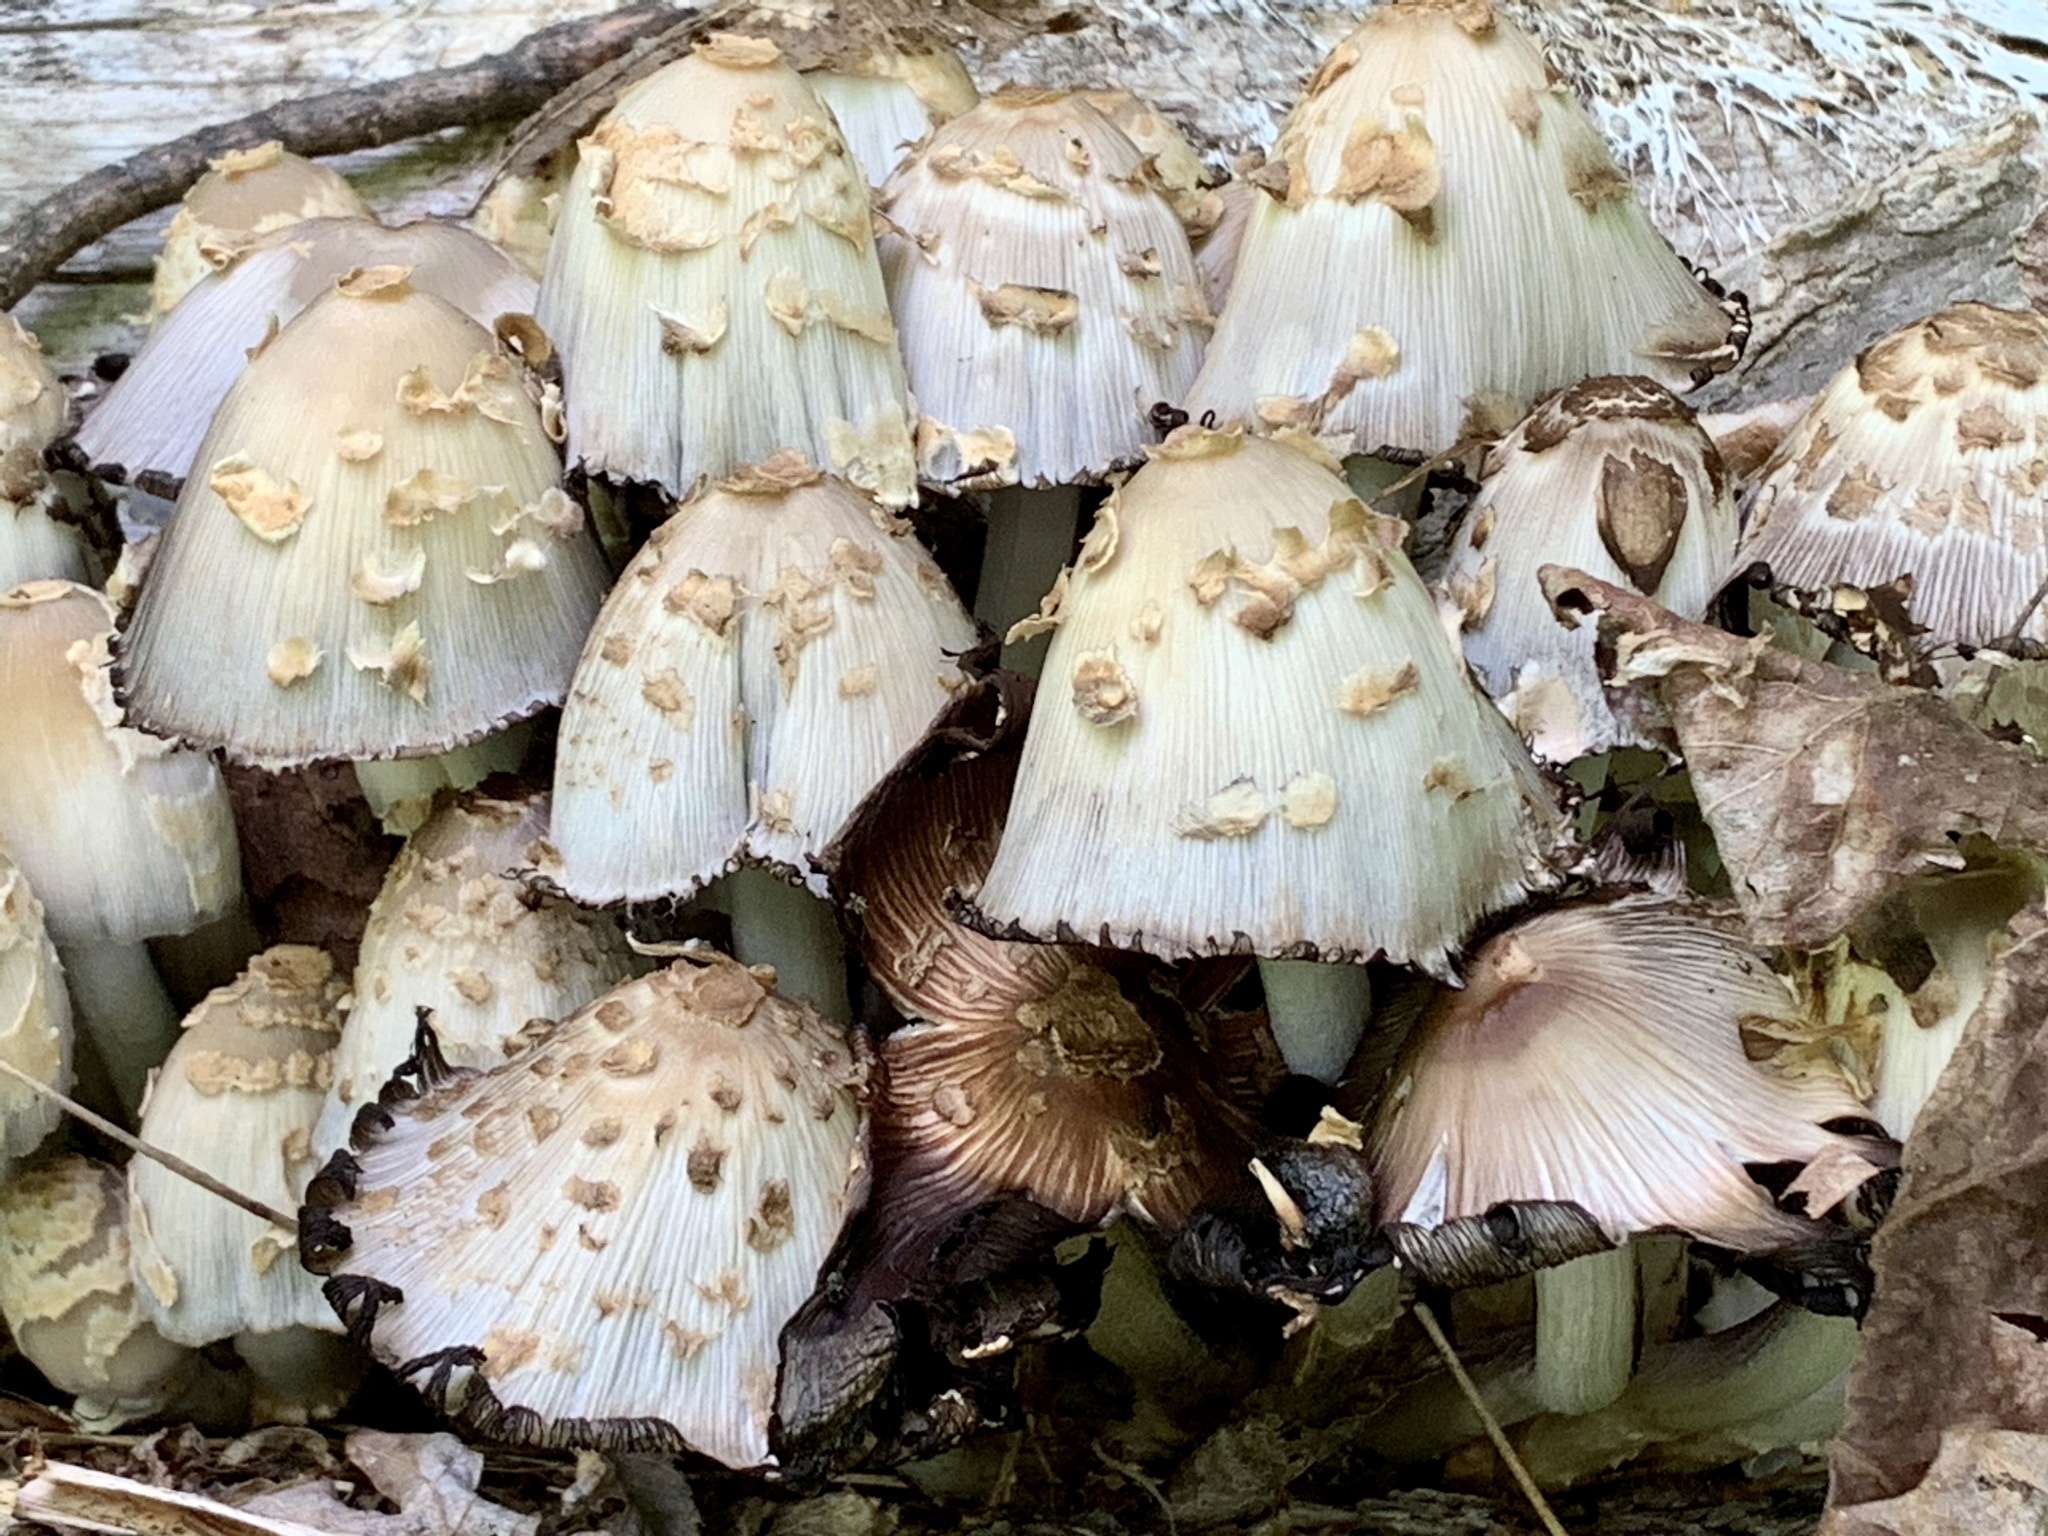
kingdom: Fungi
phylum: Basidiomycota
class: Agaricomycetes
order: Agaricales
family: Psathyrellaceae
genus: Coprinopsis
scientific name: Coprinopsis variegata
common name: Scaly ink cap
